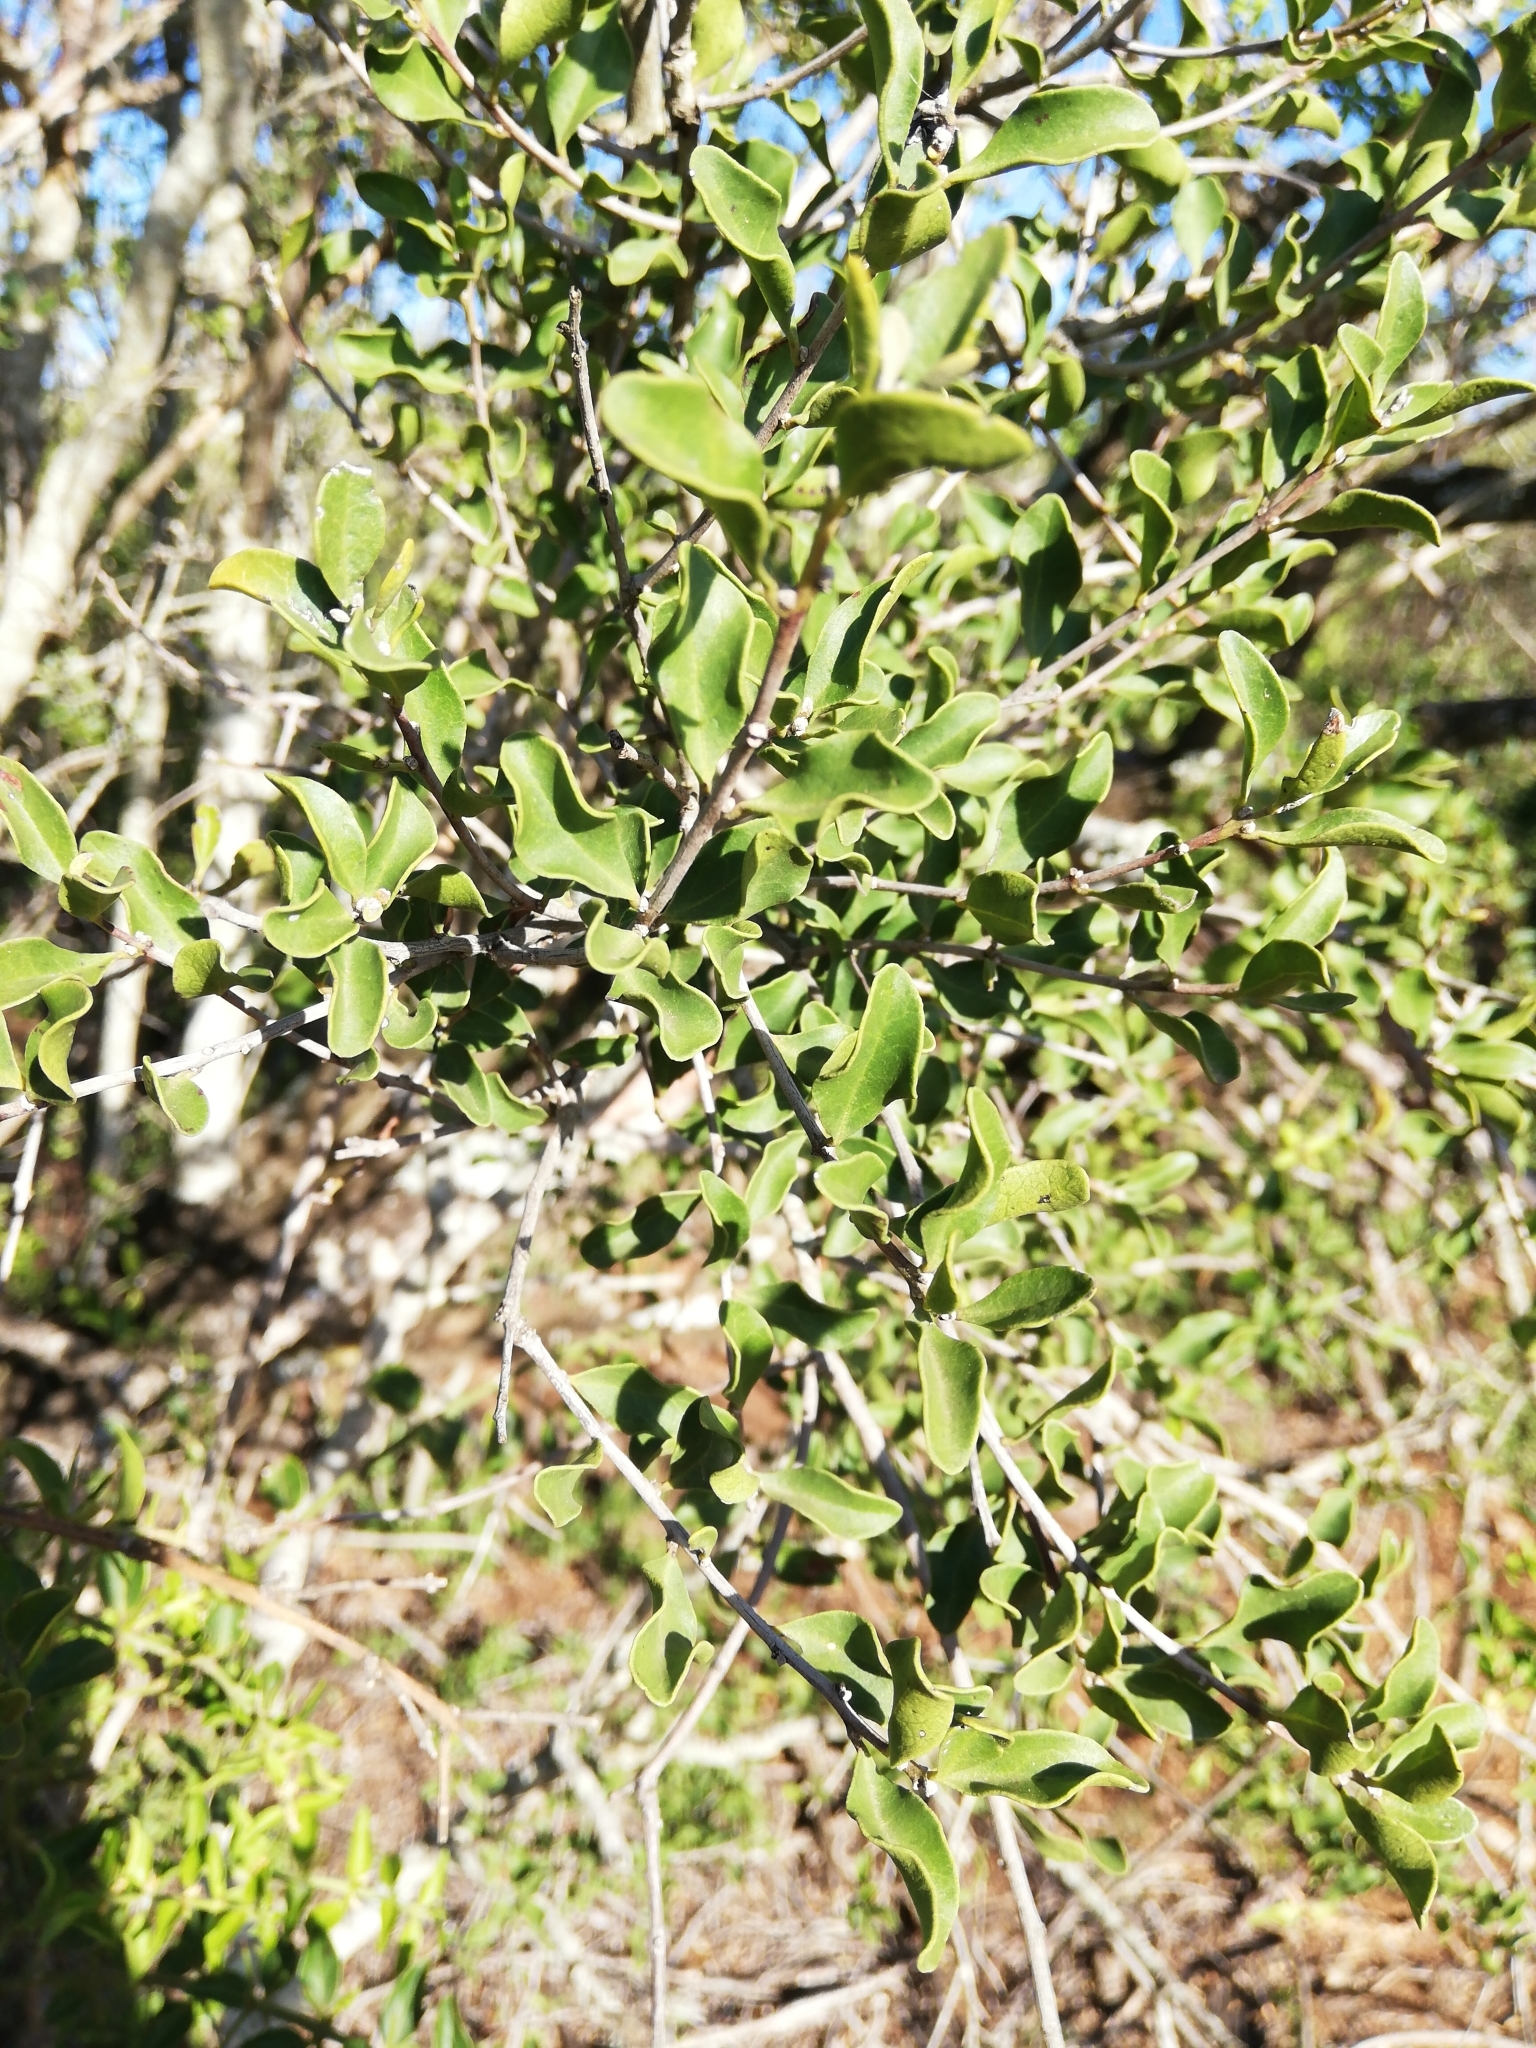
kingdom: Plantae
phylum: Tracheophyta
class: Magnoliopsida
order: Ericales
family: Ebenaceae
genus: Euclea
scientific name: Euclea undulata
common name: Small-leaved guarri
